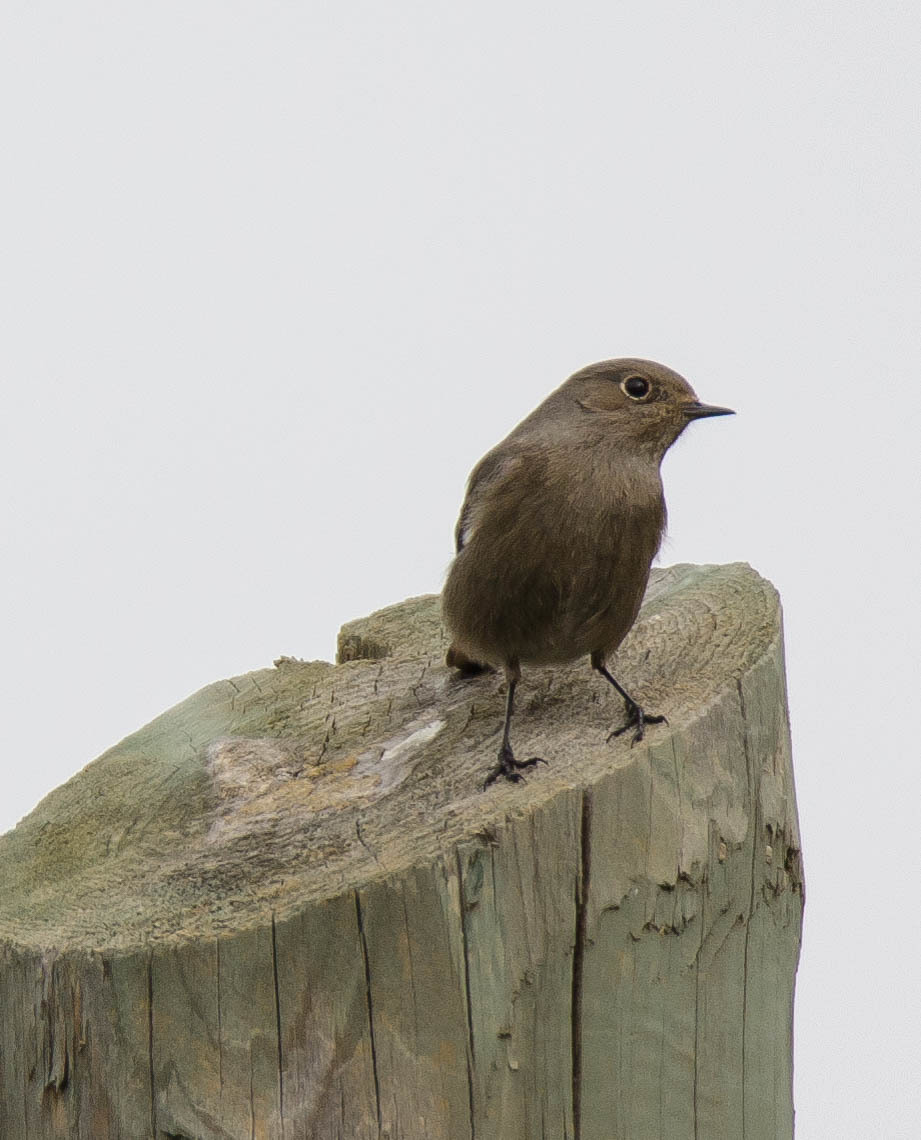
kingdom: Animalia
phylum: Chordata
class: Aves
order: Passeriformes
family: Muscicapidae
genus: Phoenicurus
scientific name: Phoenicurus ochruros
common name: Black redstart
